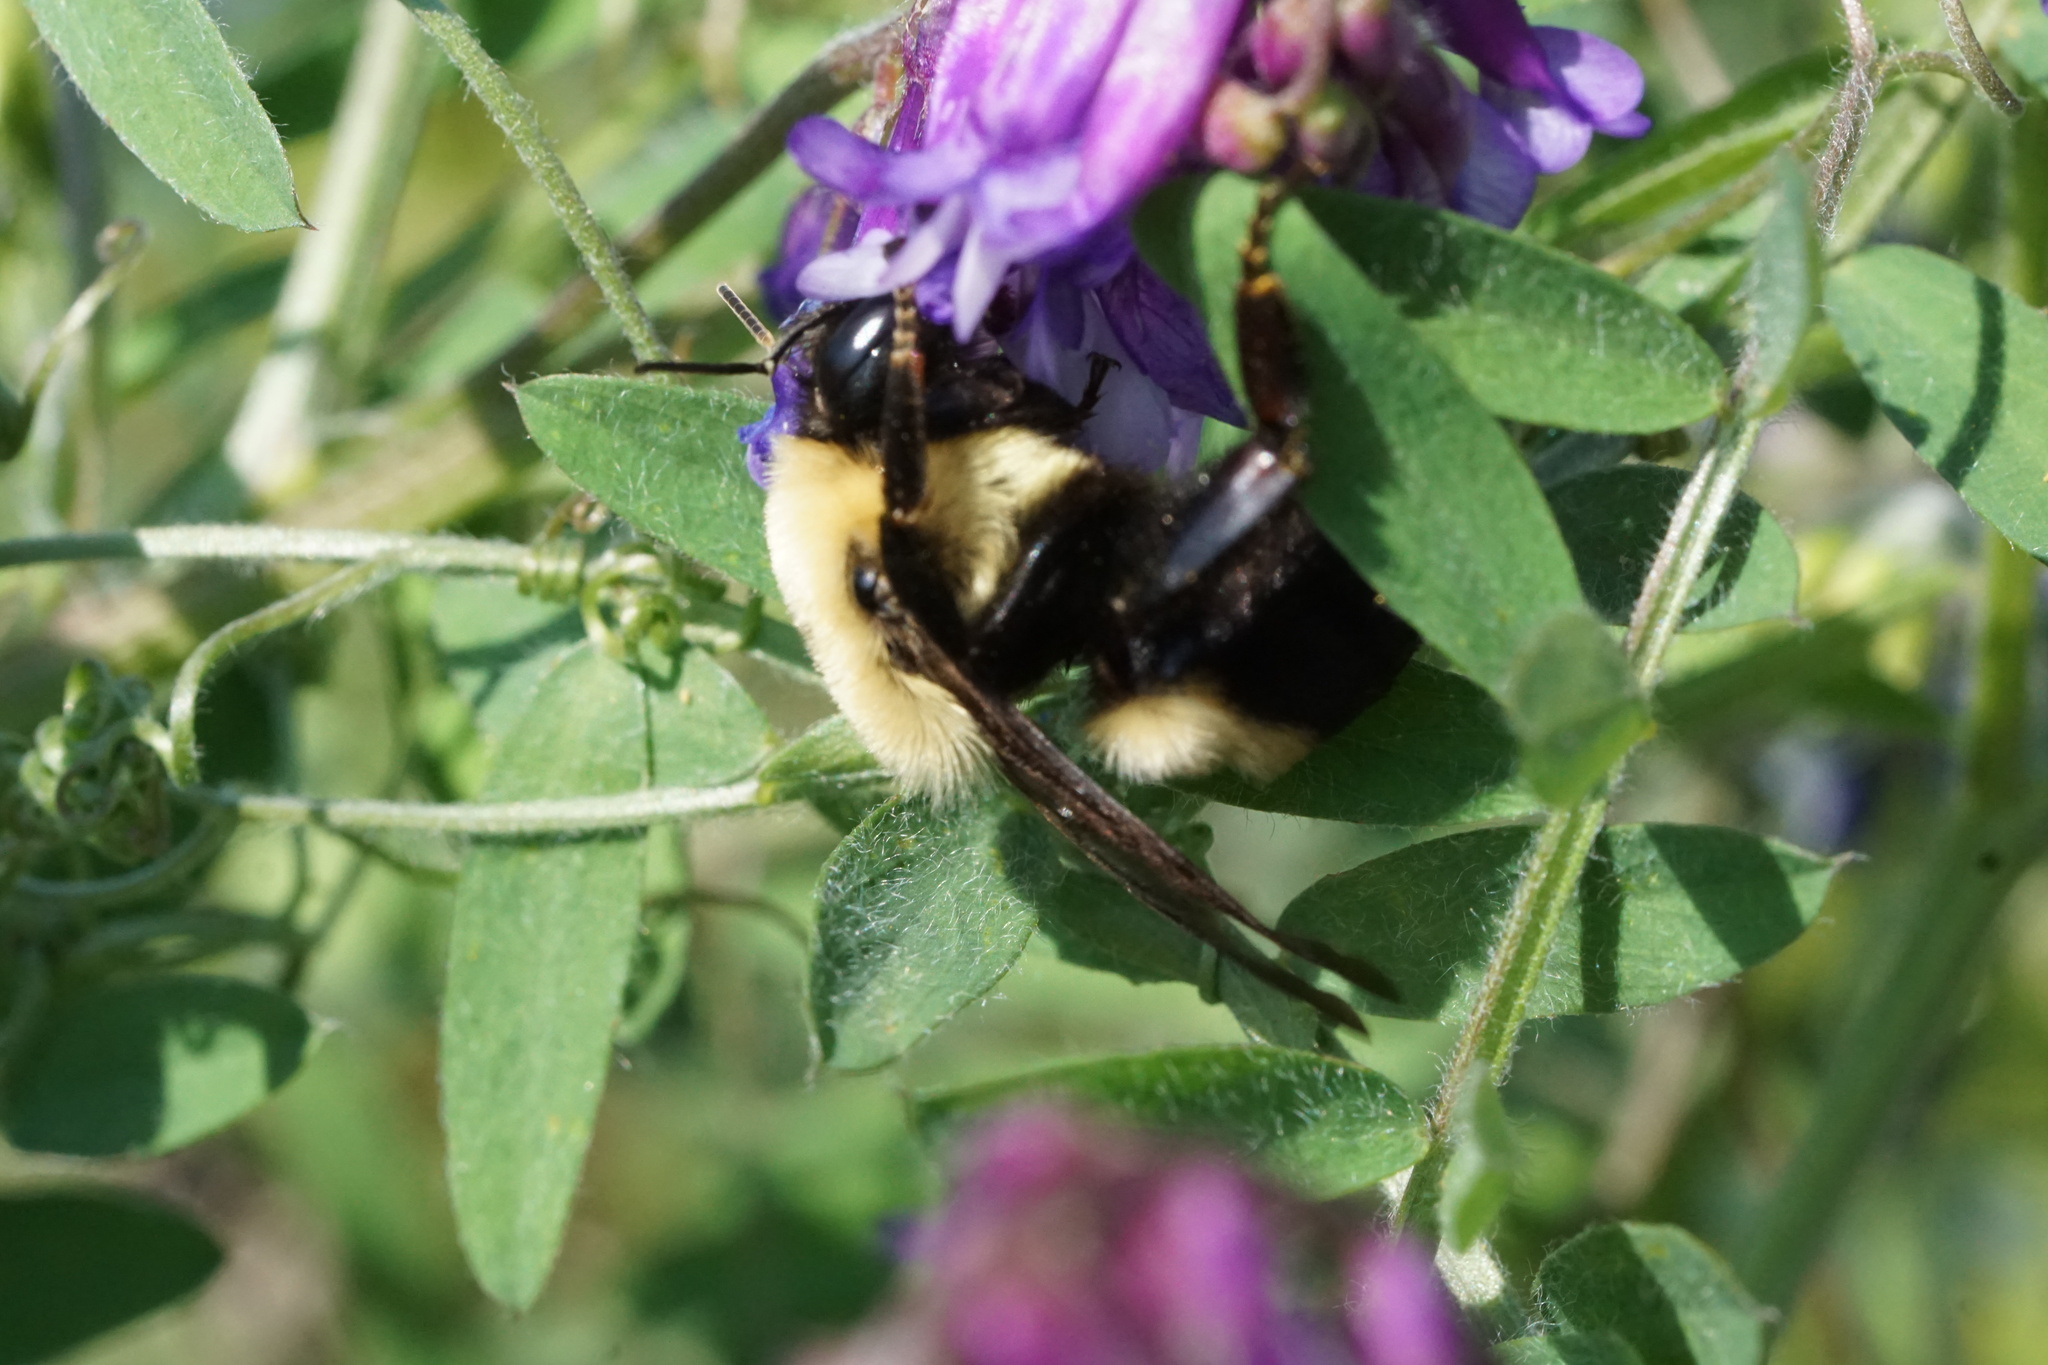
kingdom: Animalia
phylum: Arthropoda
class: Insecta
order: Hymenoptera
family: Apidae
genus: Bombus
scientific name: Bombus griseocollis
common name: Brown-belted bumble bee
